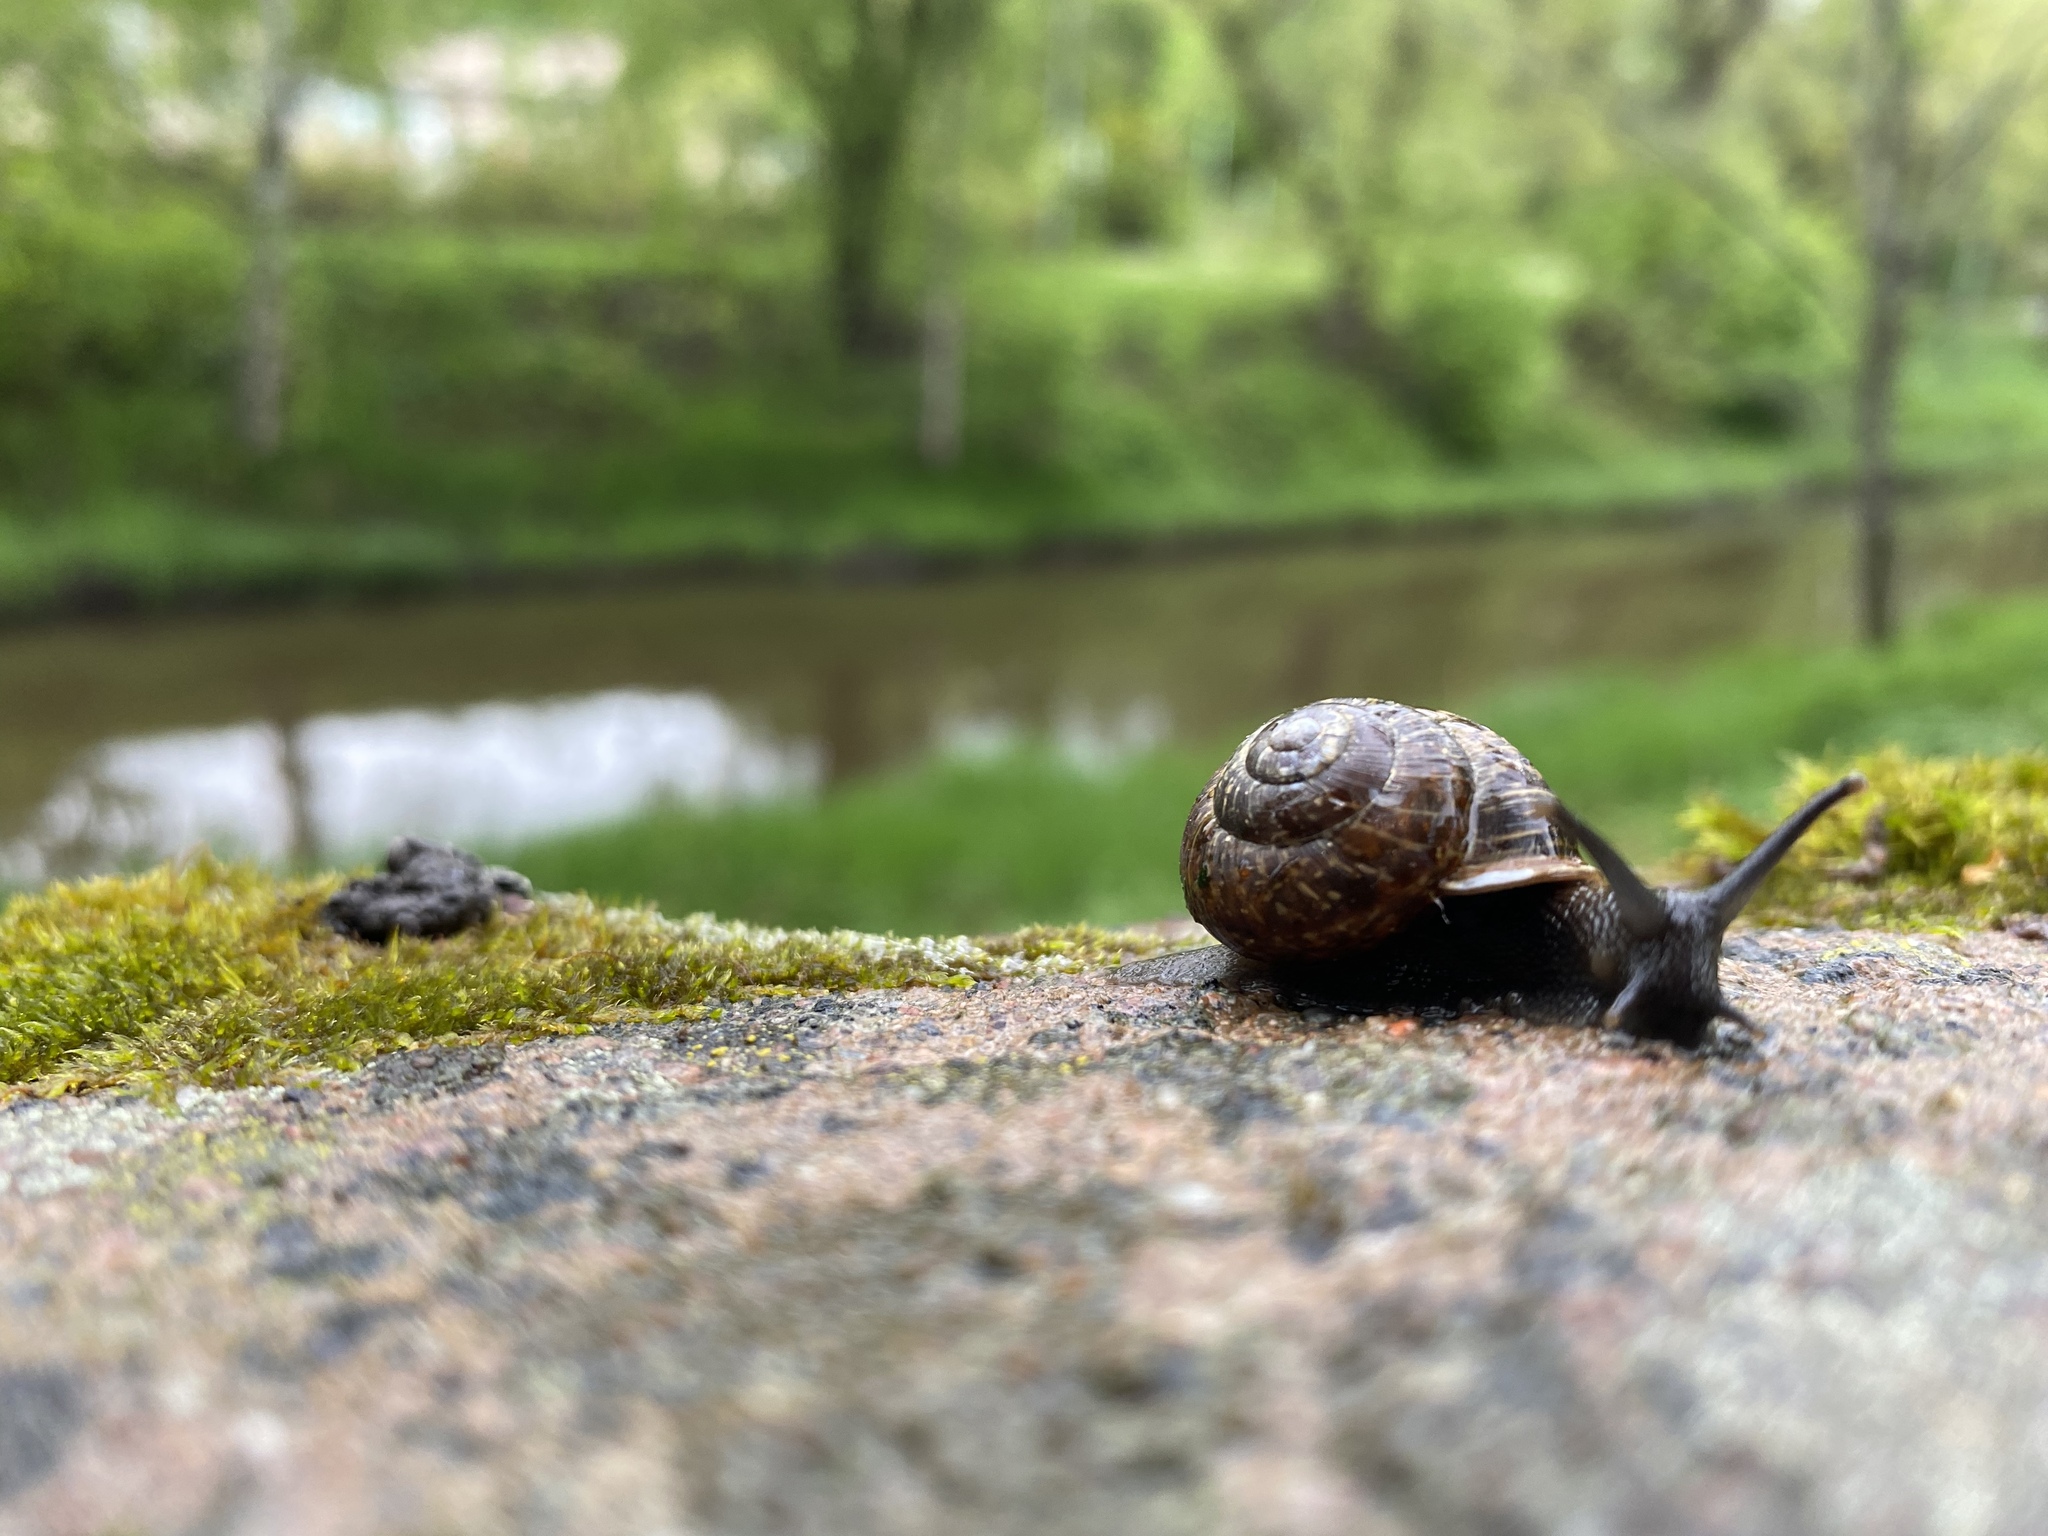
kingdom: Animalia
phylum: Mollusca
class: Gastropoda
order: Stylommatophora
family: Helicidae
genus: Arianta
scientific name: Arianta arbustorum
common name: Copse snail
